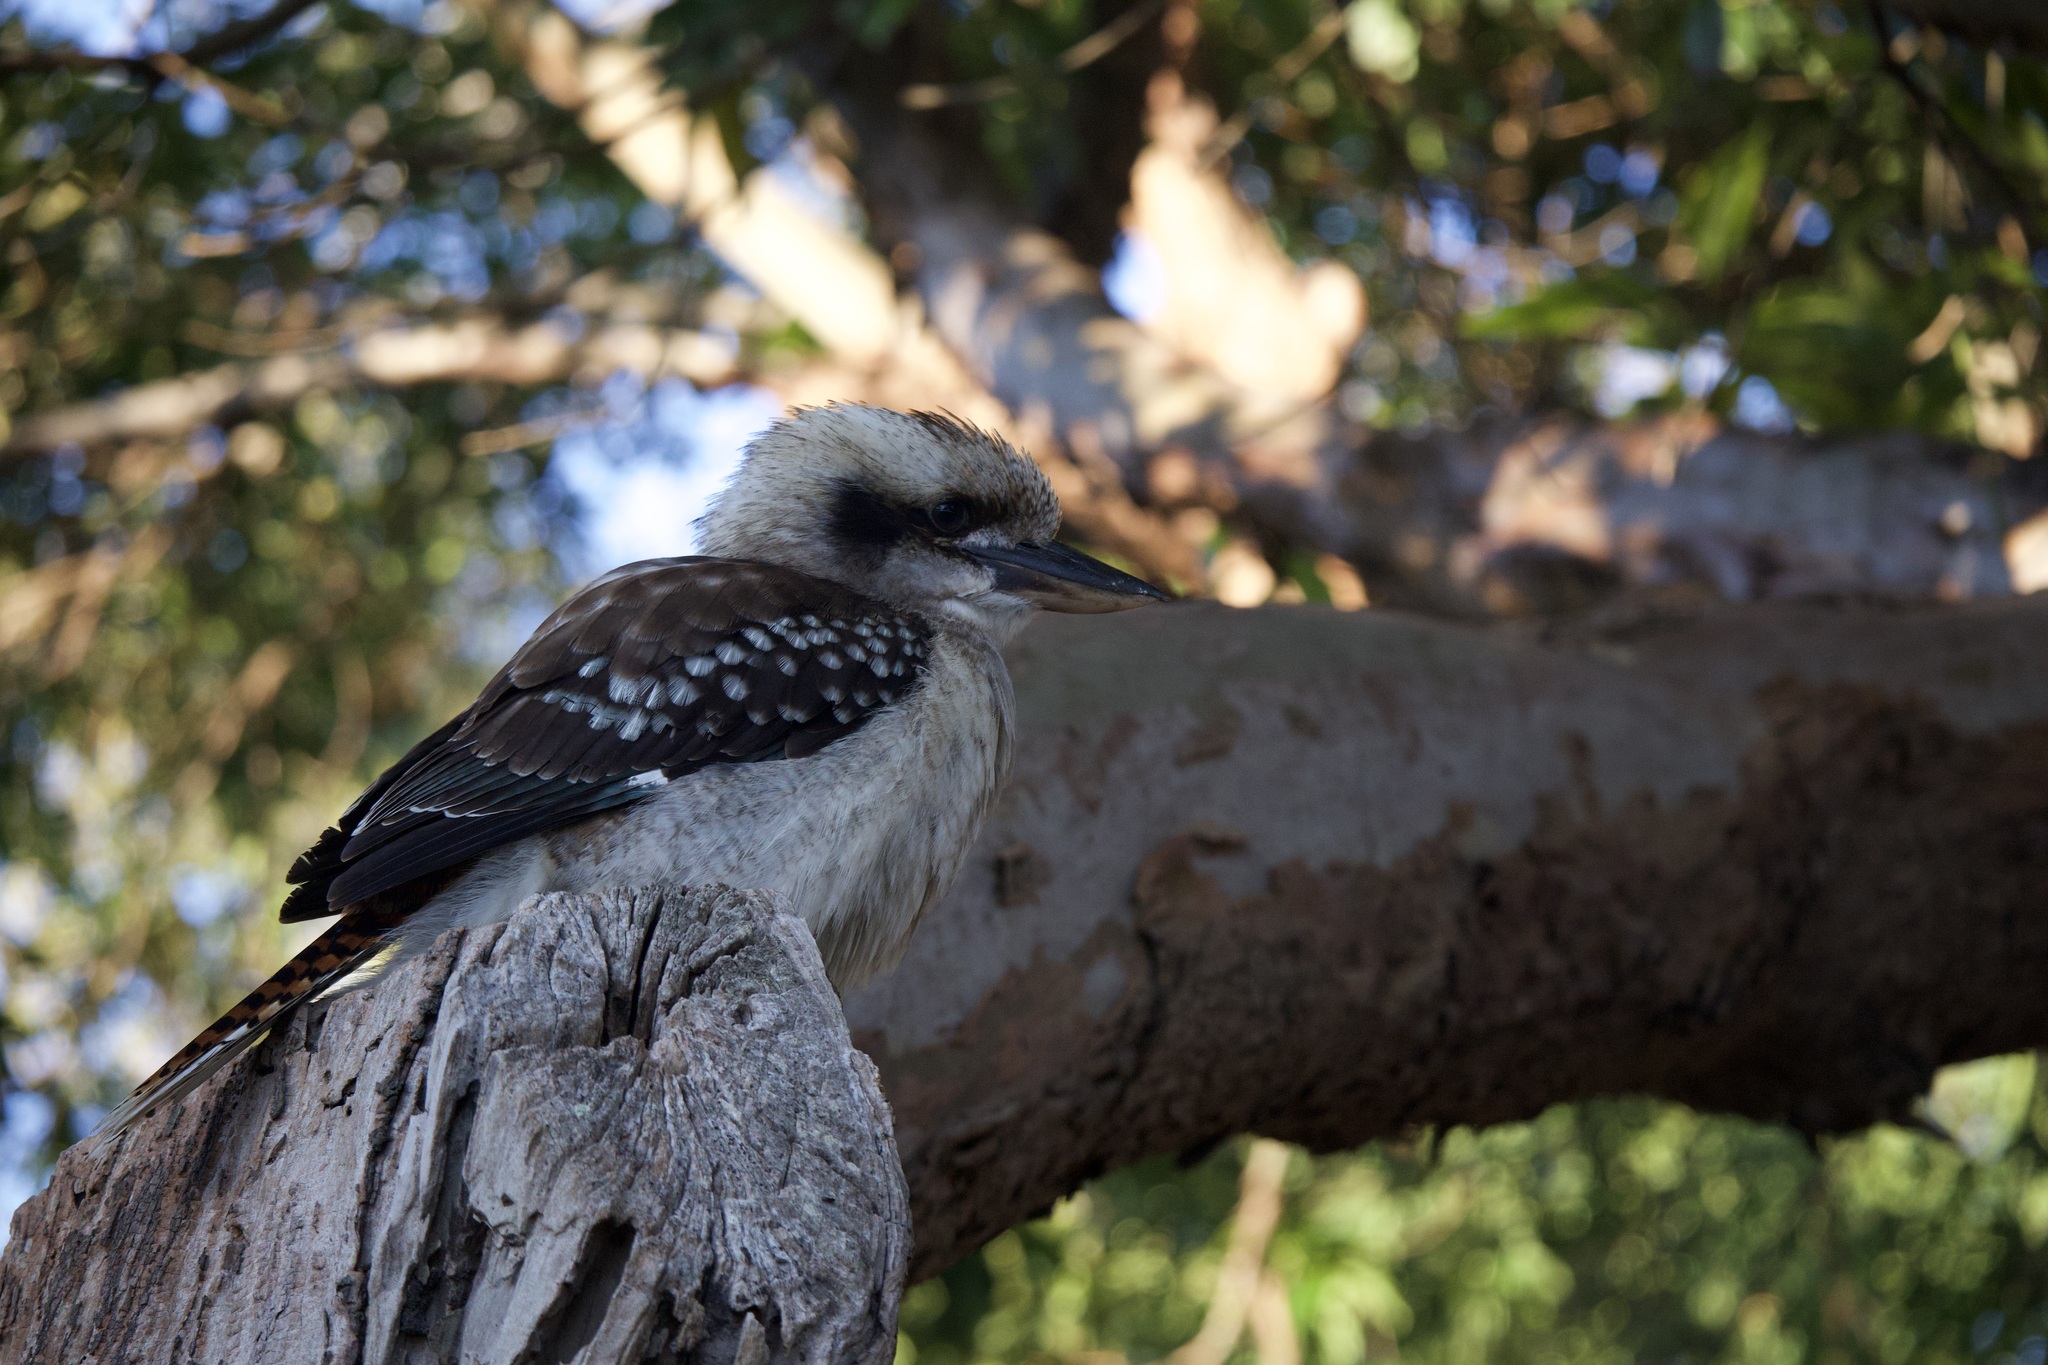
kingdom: Animalia
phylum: Chordata
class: Aves
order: Coraciiformes
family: Alcedinidae
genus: Dacelo
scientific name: Dacelo novaeguineae
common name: Laughing kookaburra
